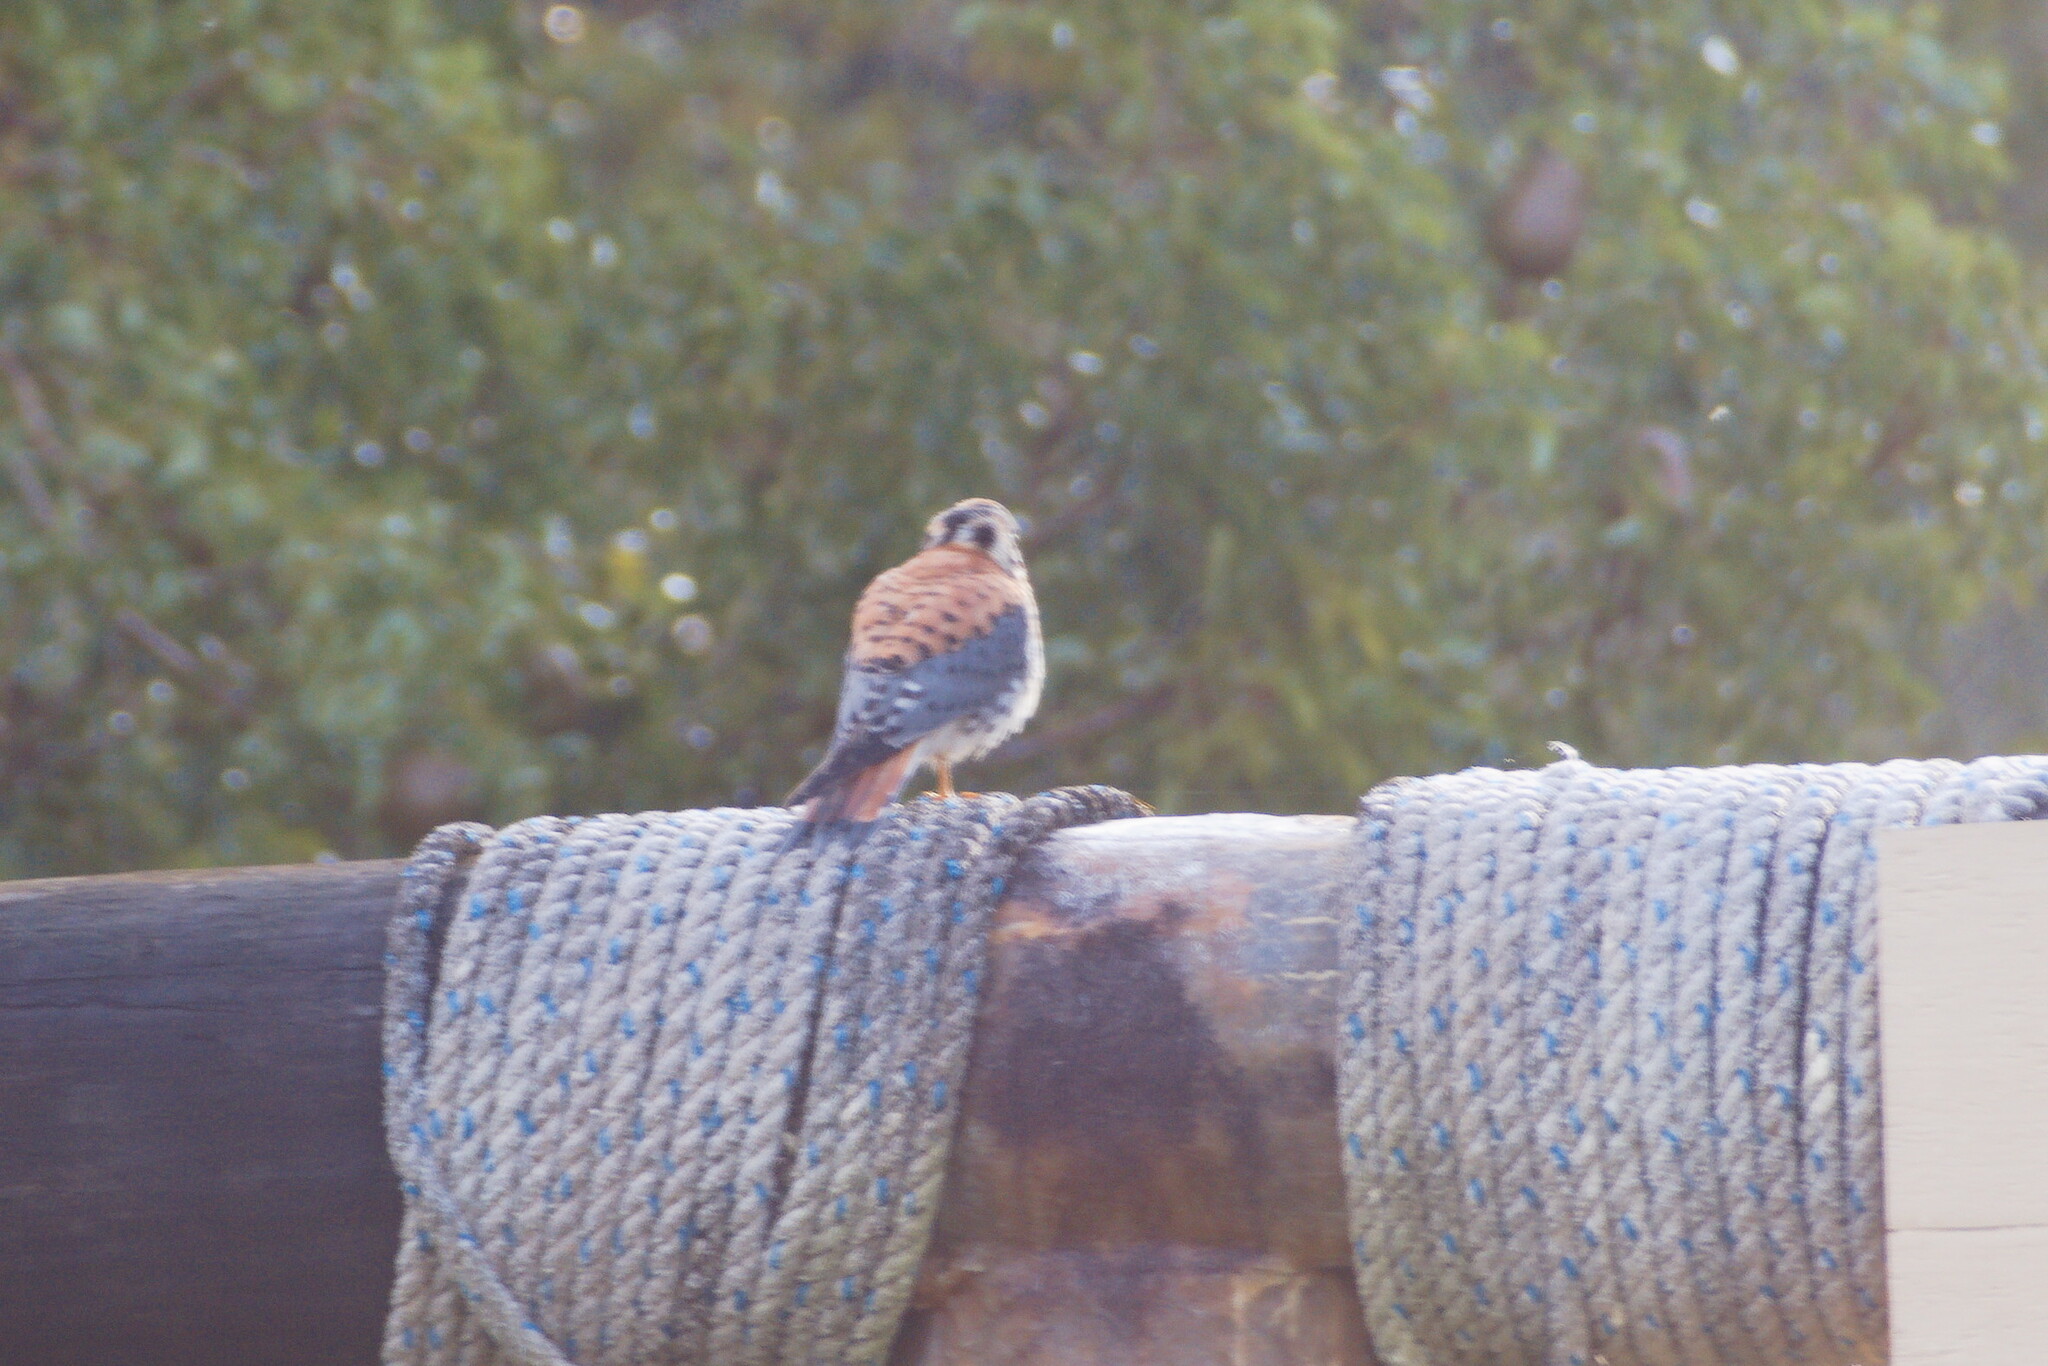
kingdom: Animalia
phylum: Chordata
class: Aves
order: Falconiformes
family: Falconidae
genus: Falco
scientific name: Falco sparverius
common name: American kestrel
